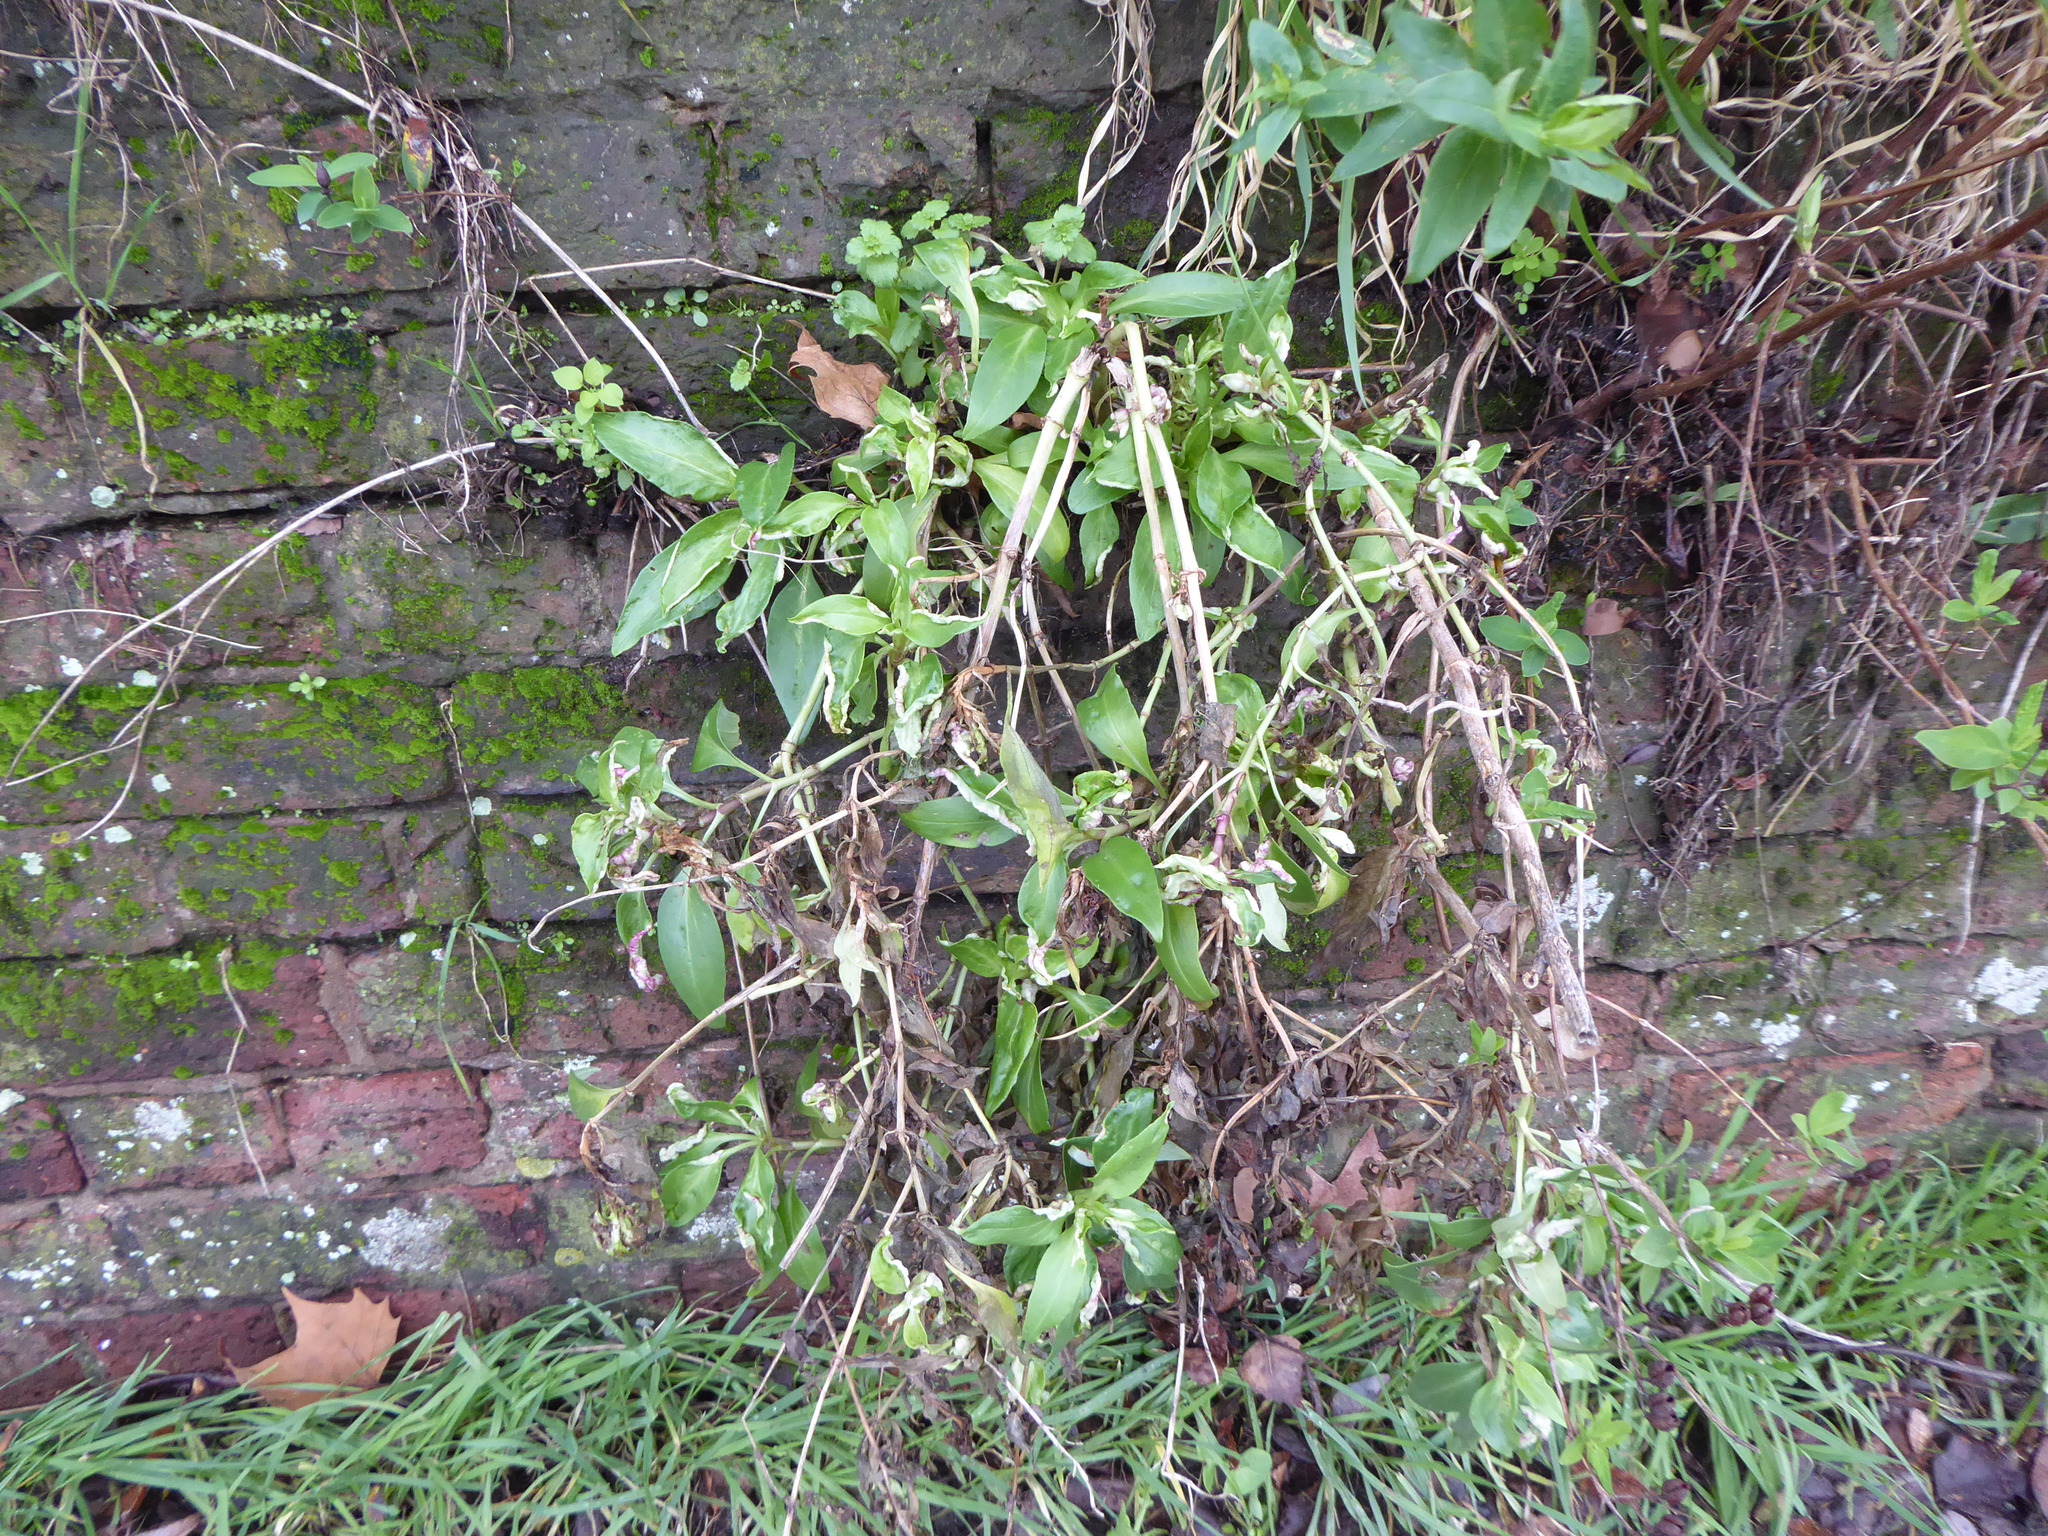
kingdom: Plantae
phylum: Tracheophyta
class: Magnoliopsida
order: Dipsacales
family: Caprifoliaceae
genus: Centranthus
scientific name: Centranthus ruber
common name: Red valerian
